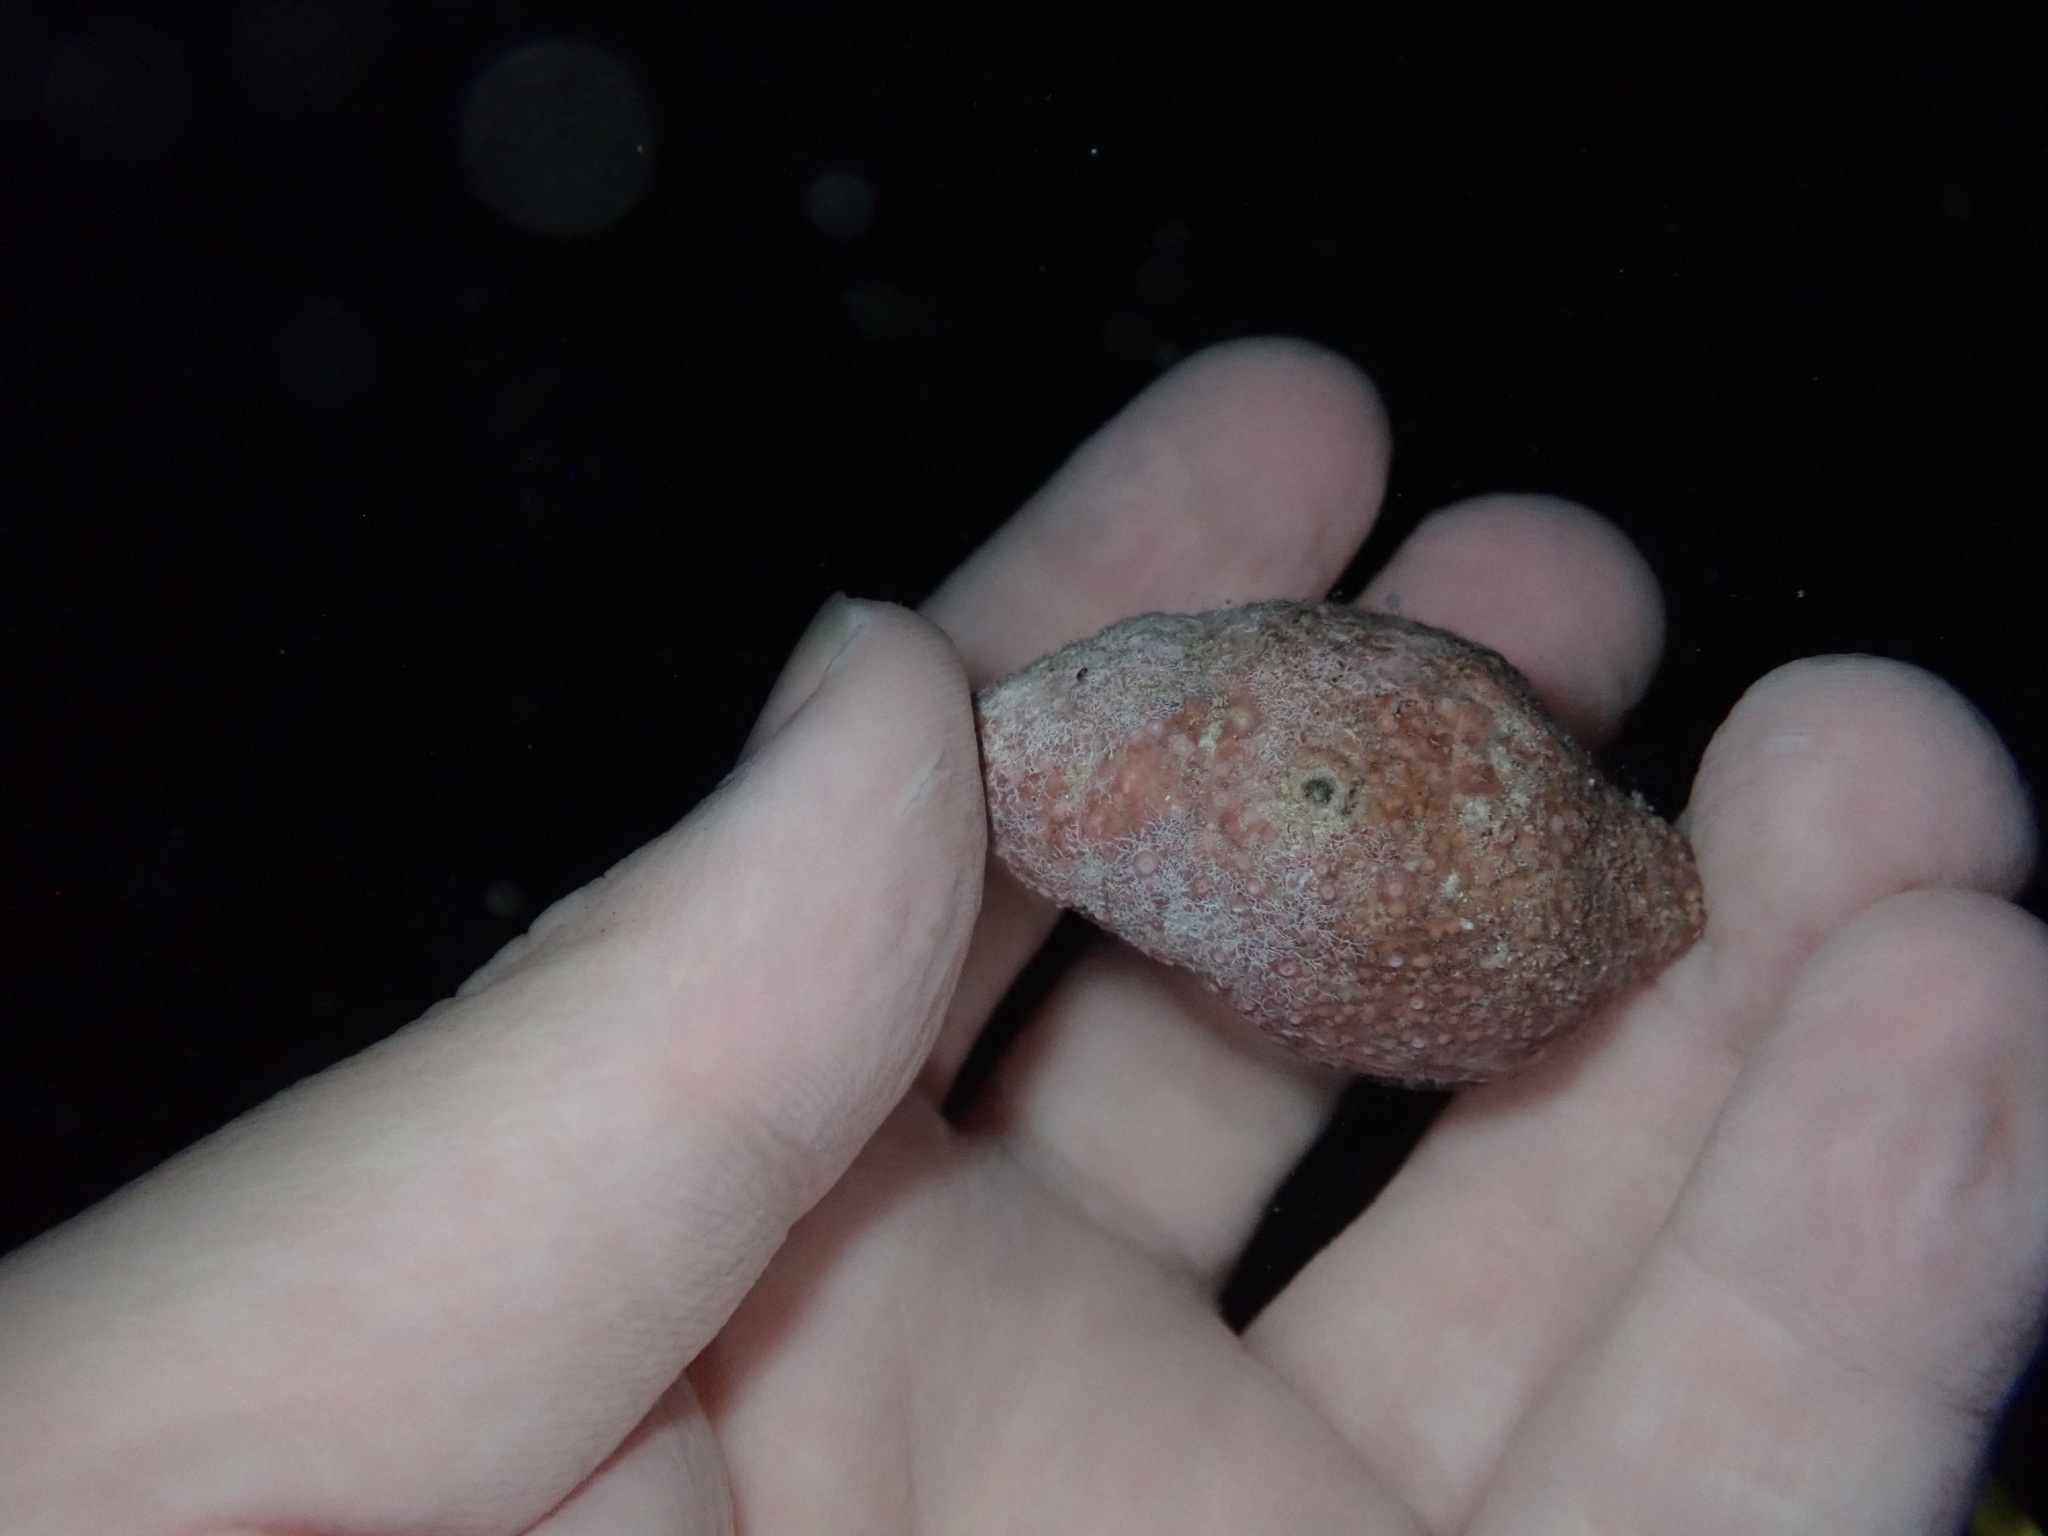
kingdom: Animalia
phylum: Mollusca
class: Gastropoda
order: Neogastropoda
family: Fasciolariidae
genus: Leucozonia
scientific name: Leucozonia leucozonalis
